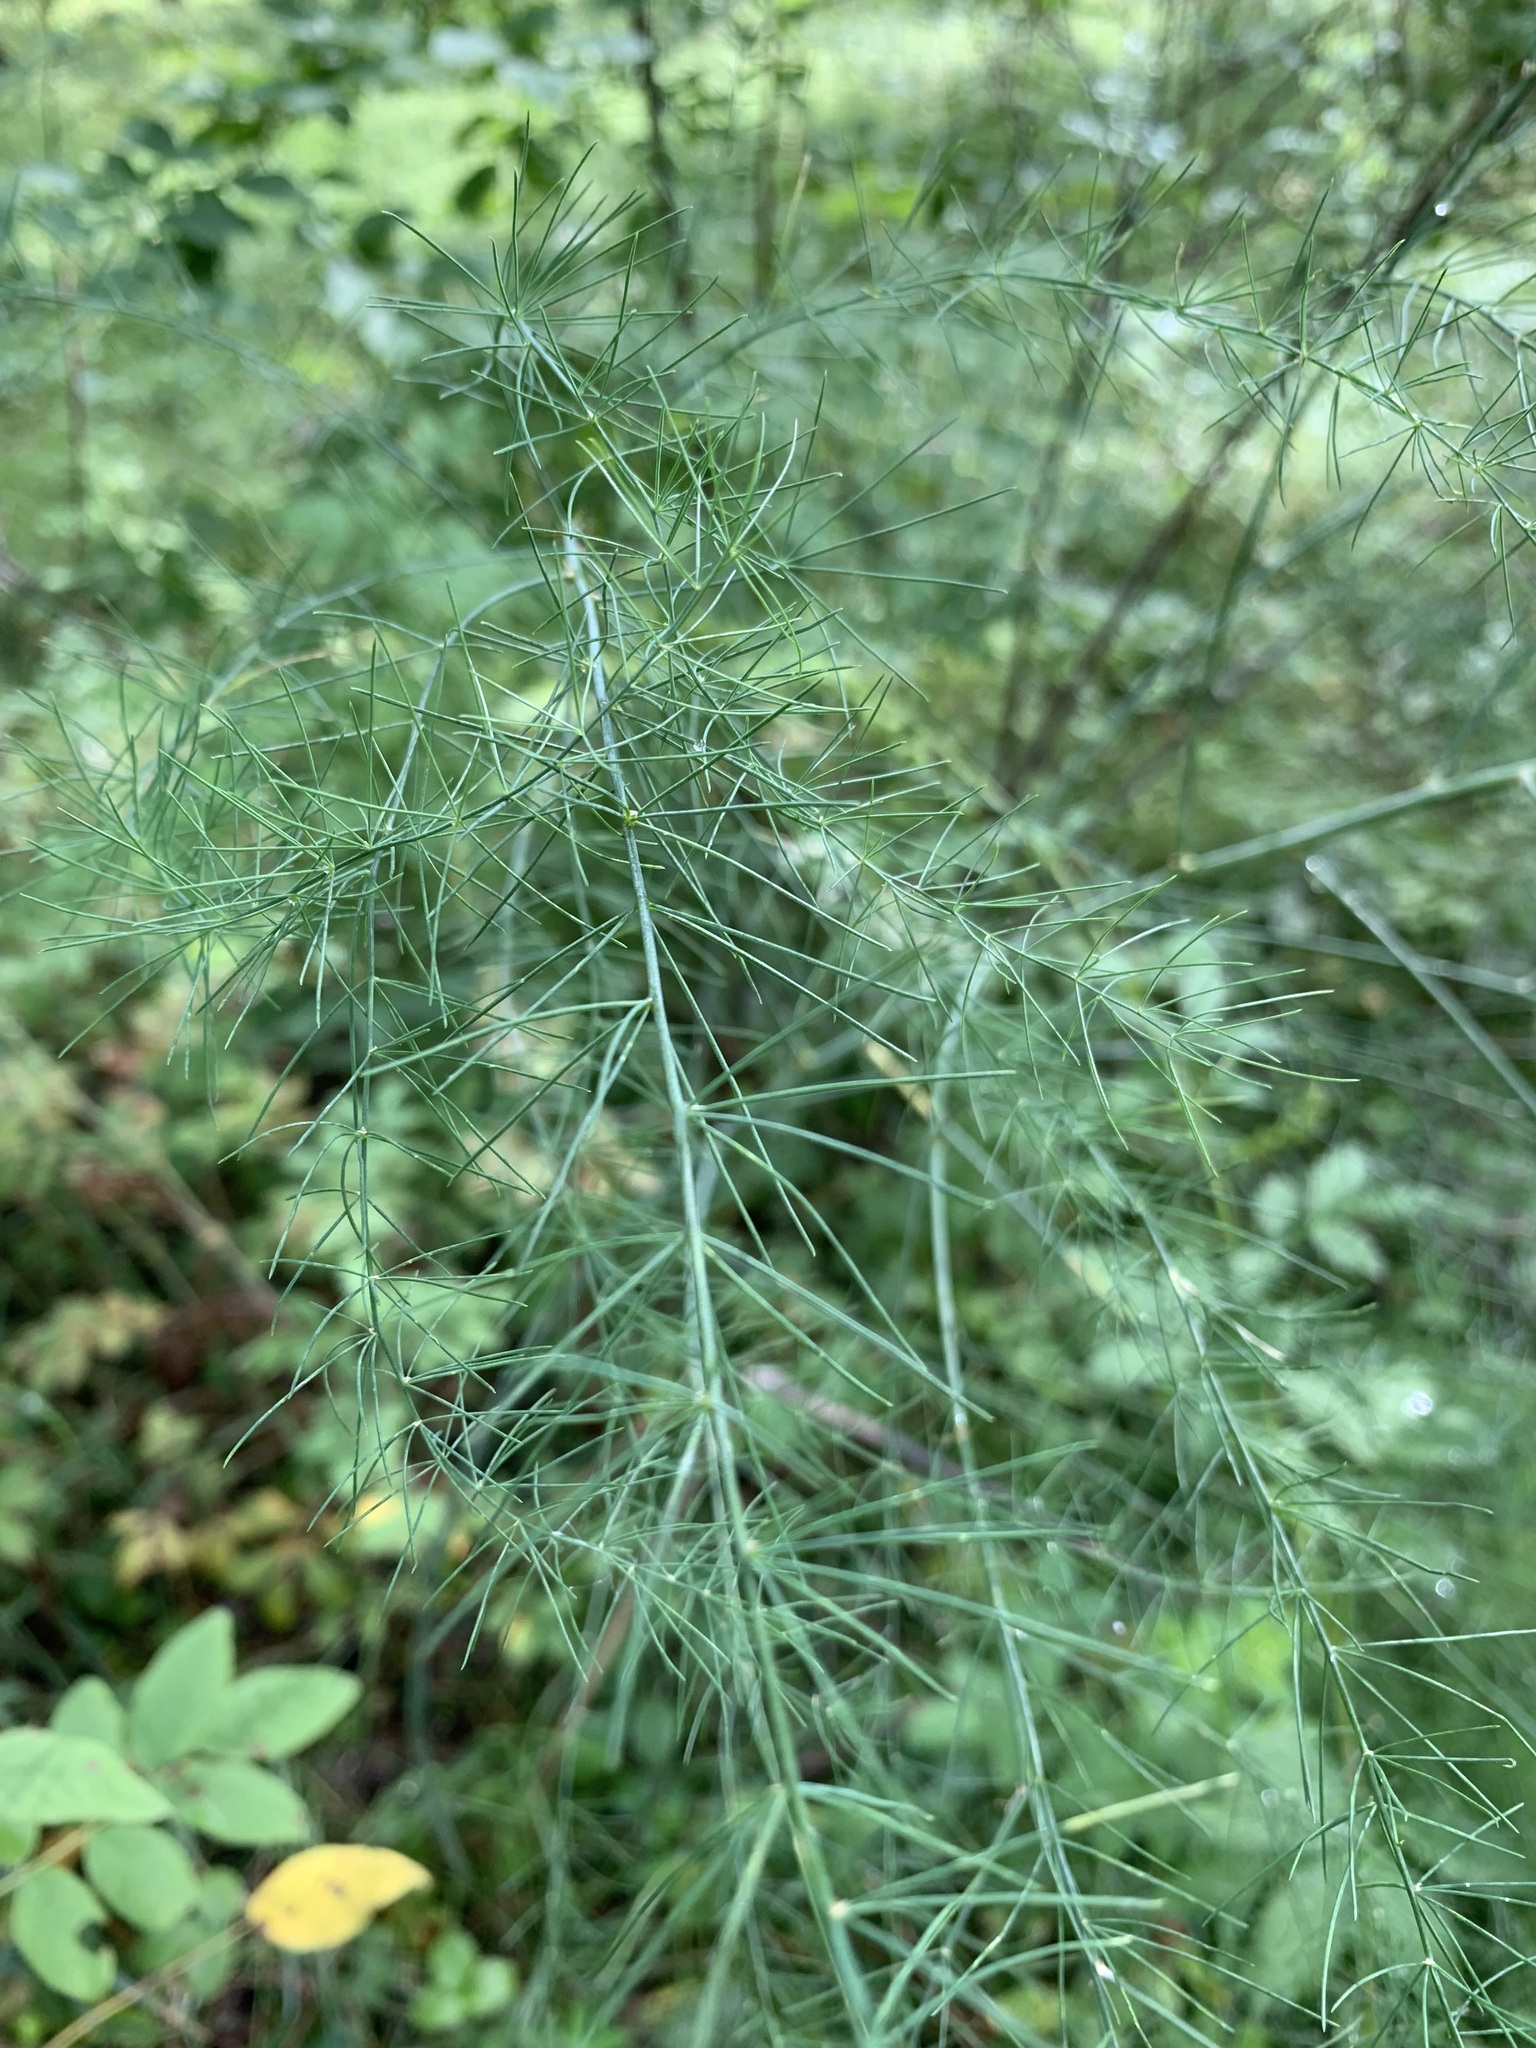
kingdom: Plantae
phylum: Tracheophyta
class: Liliopsida
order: Asparagales
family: Asparagaceae
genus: Asparagus
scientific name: Asparagus officinalis
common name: Garden asparagus
